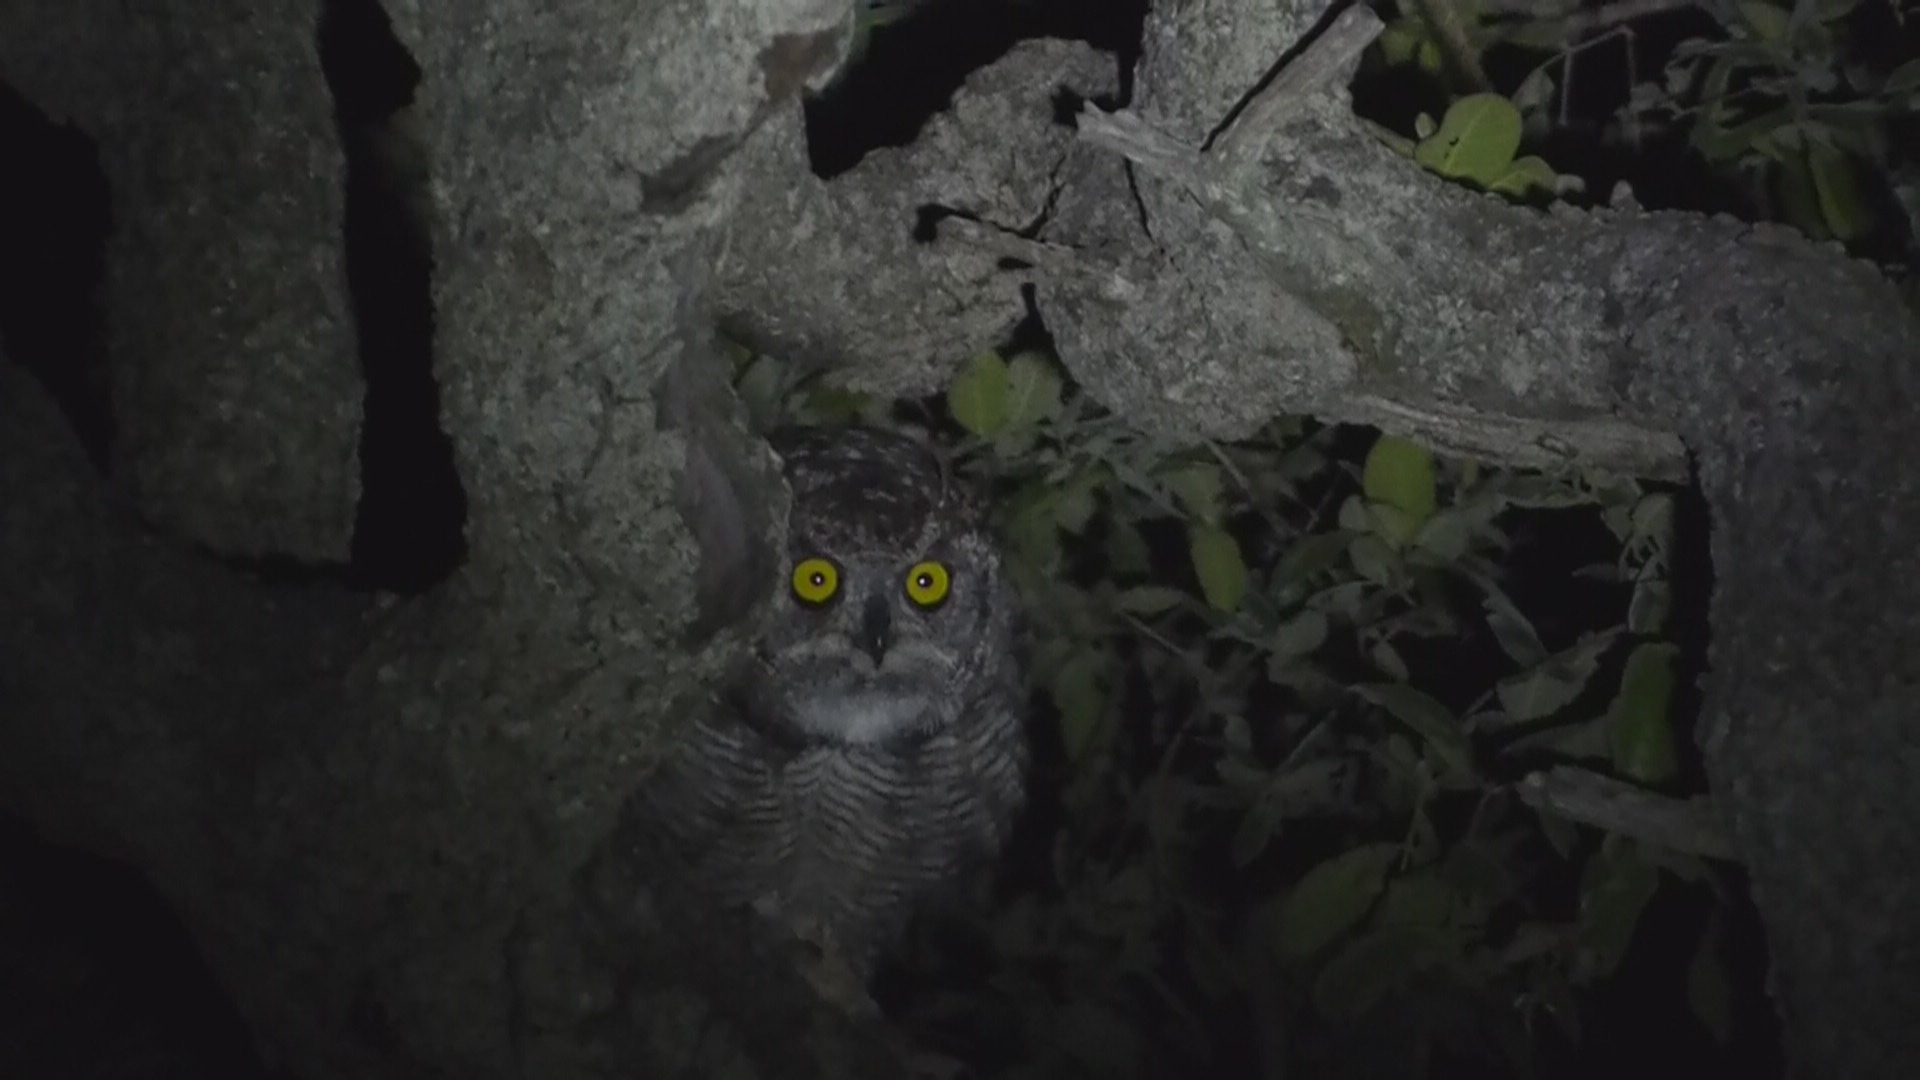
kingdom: Animalia
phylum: Chordata
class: Aves
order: Strigiformes
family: Strigidae
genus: Bubo
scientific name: Bubo africanus
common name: Spotted eagle-owl
